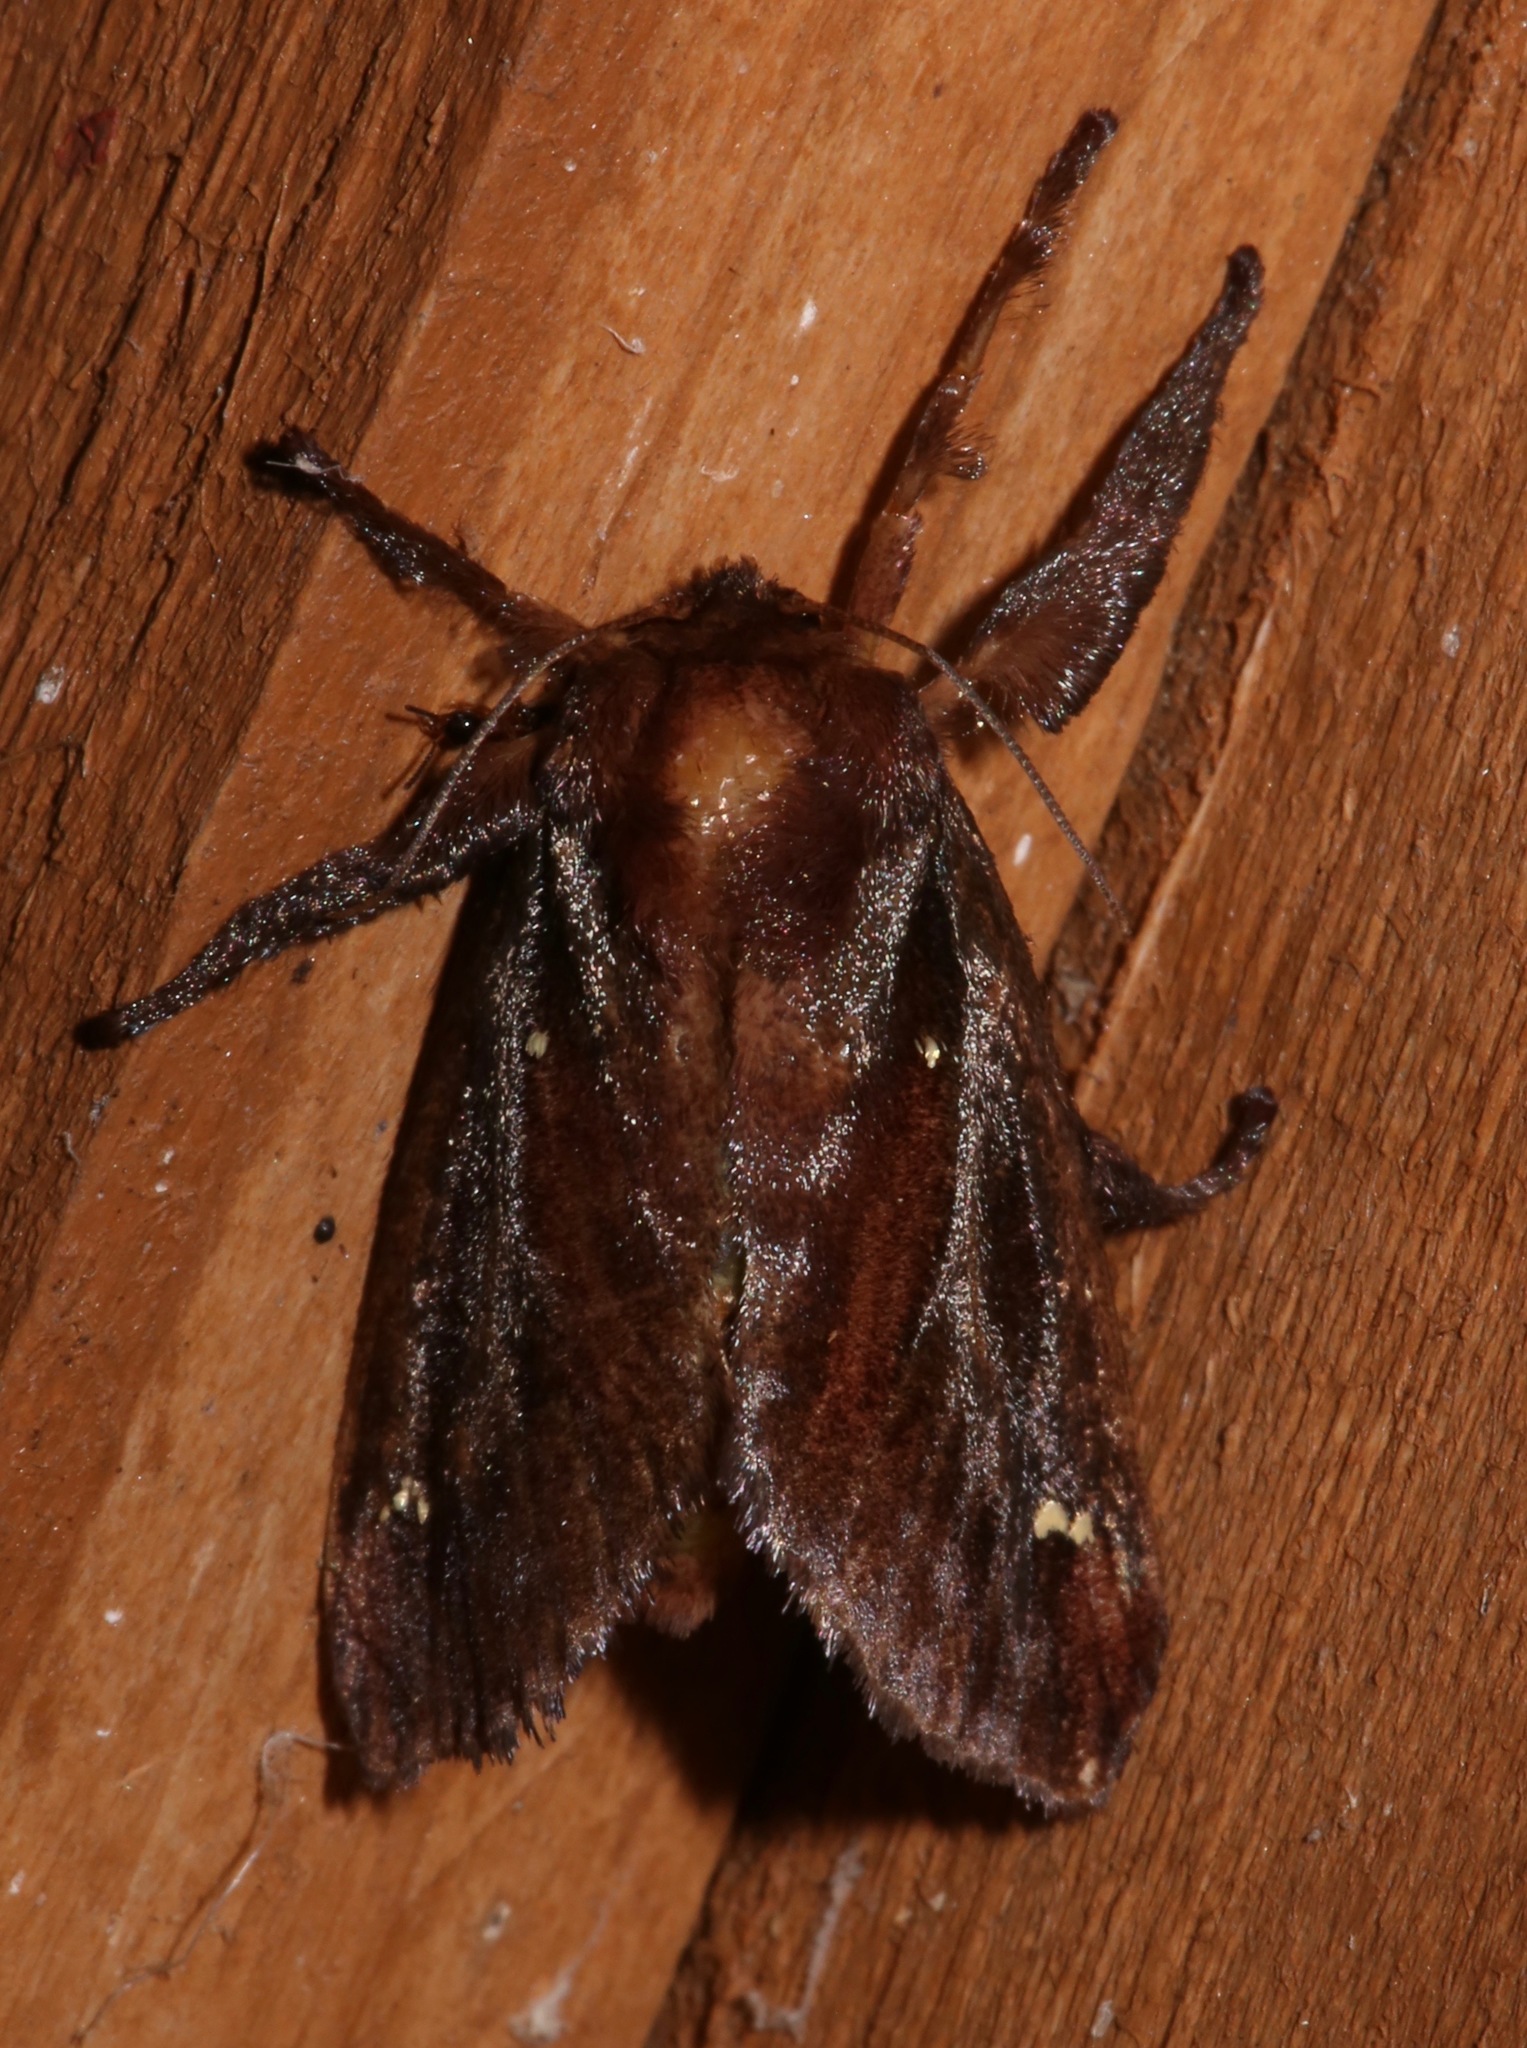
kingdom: Animalia
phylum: Arthropoda
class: Insecta
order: Lepidoptera
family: Limacodidae
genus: Acharia
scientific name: Acharia stimulea
